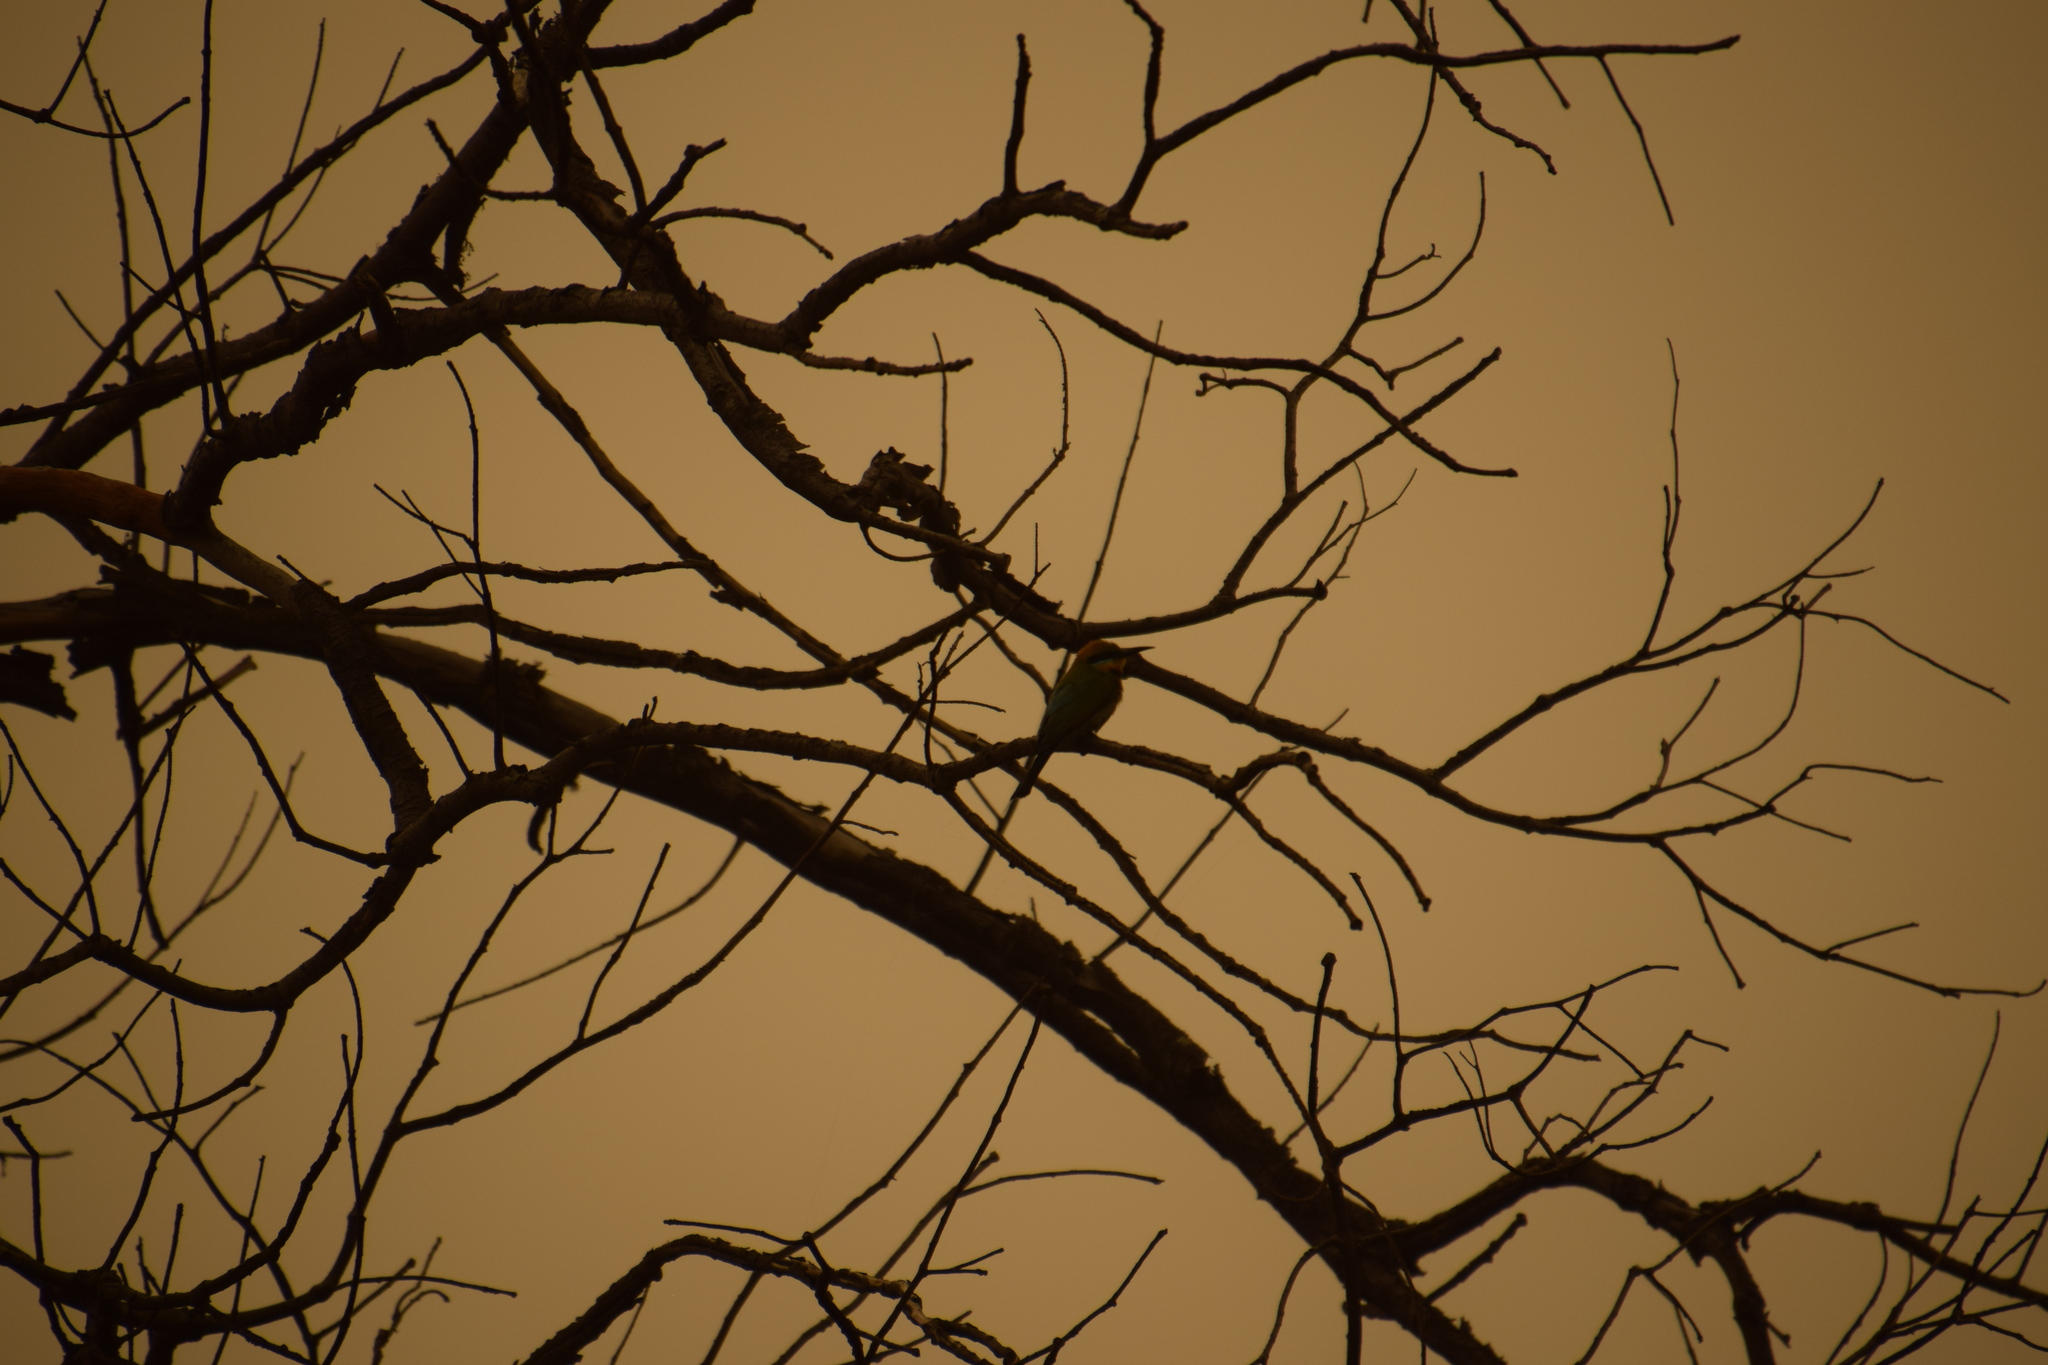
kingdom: Animalia
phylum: Chordata
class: Aves
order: Coraciiformes
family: Meropidae
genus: Merops
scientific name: Merops ornatus
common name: Rainbow bee-eater
